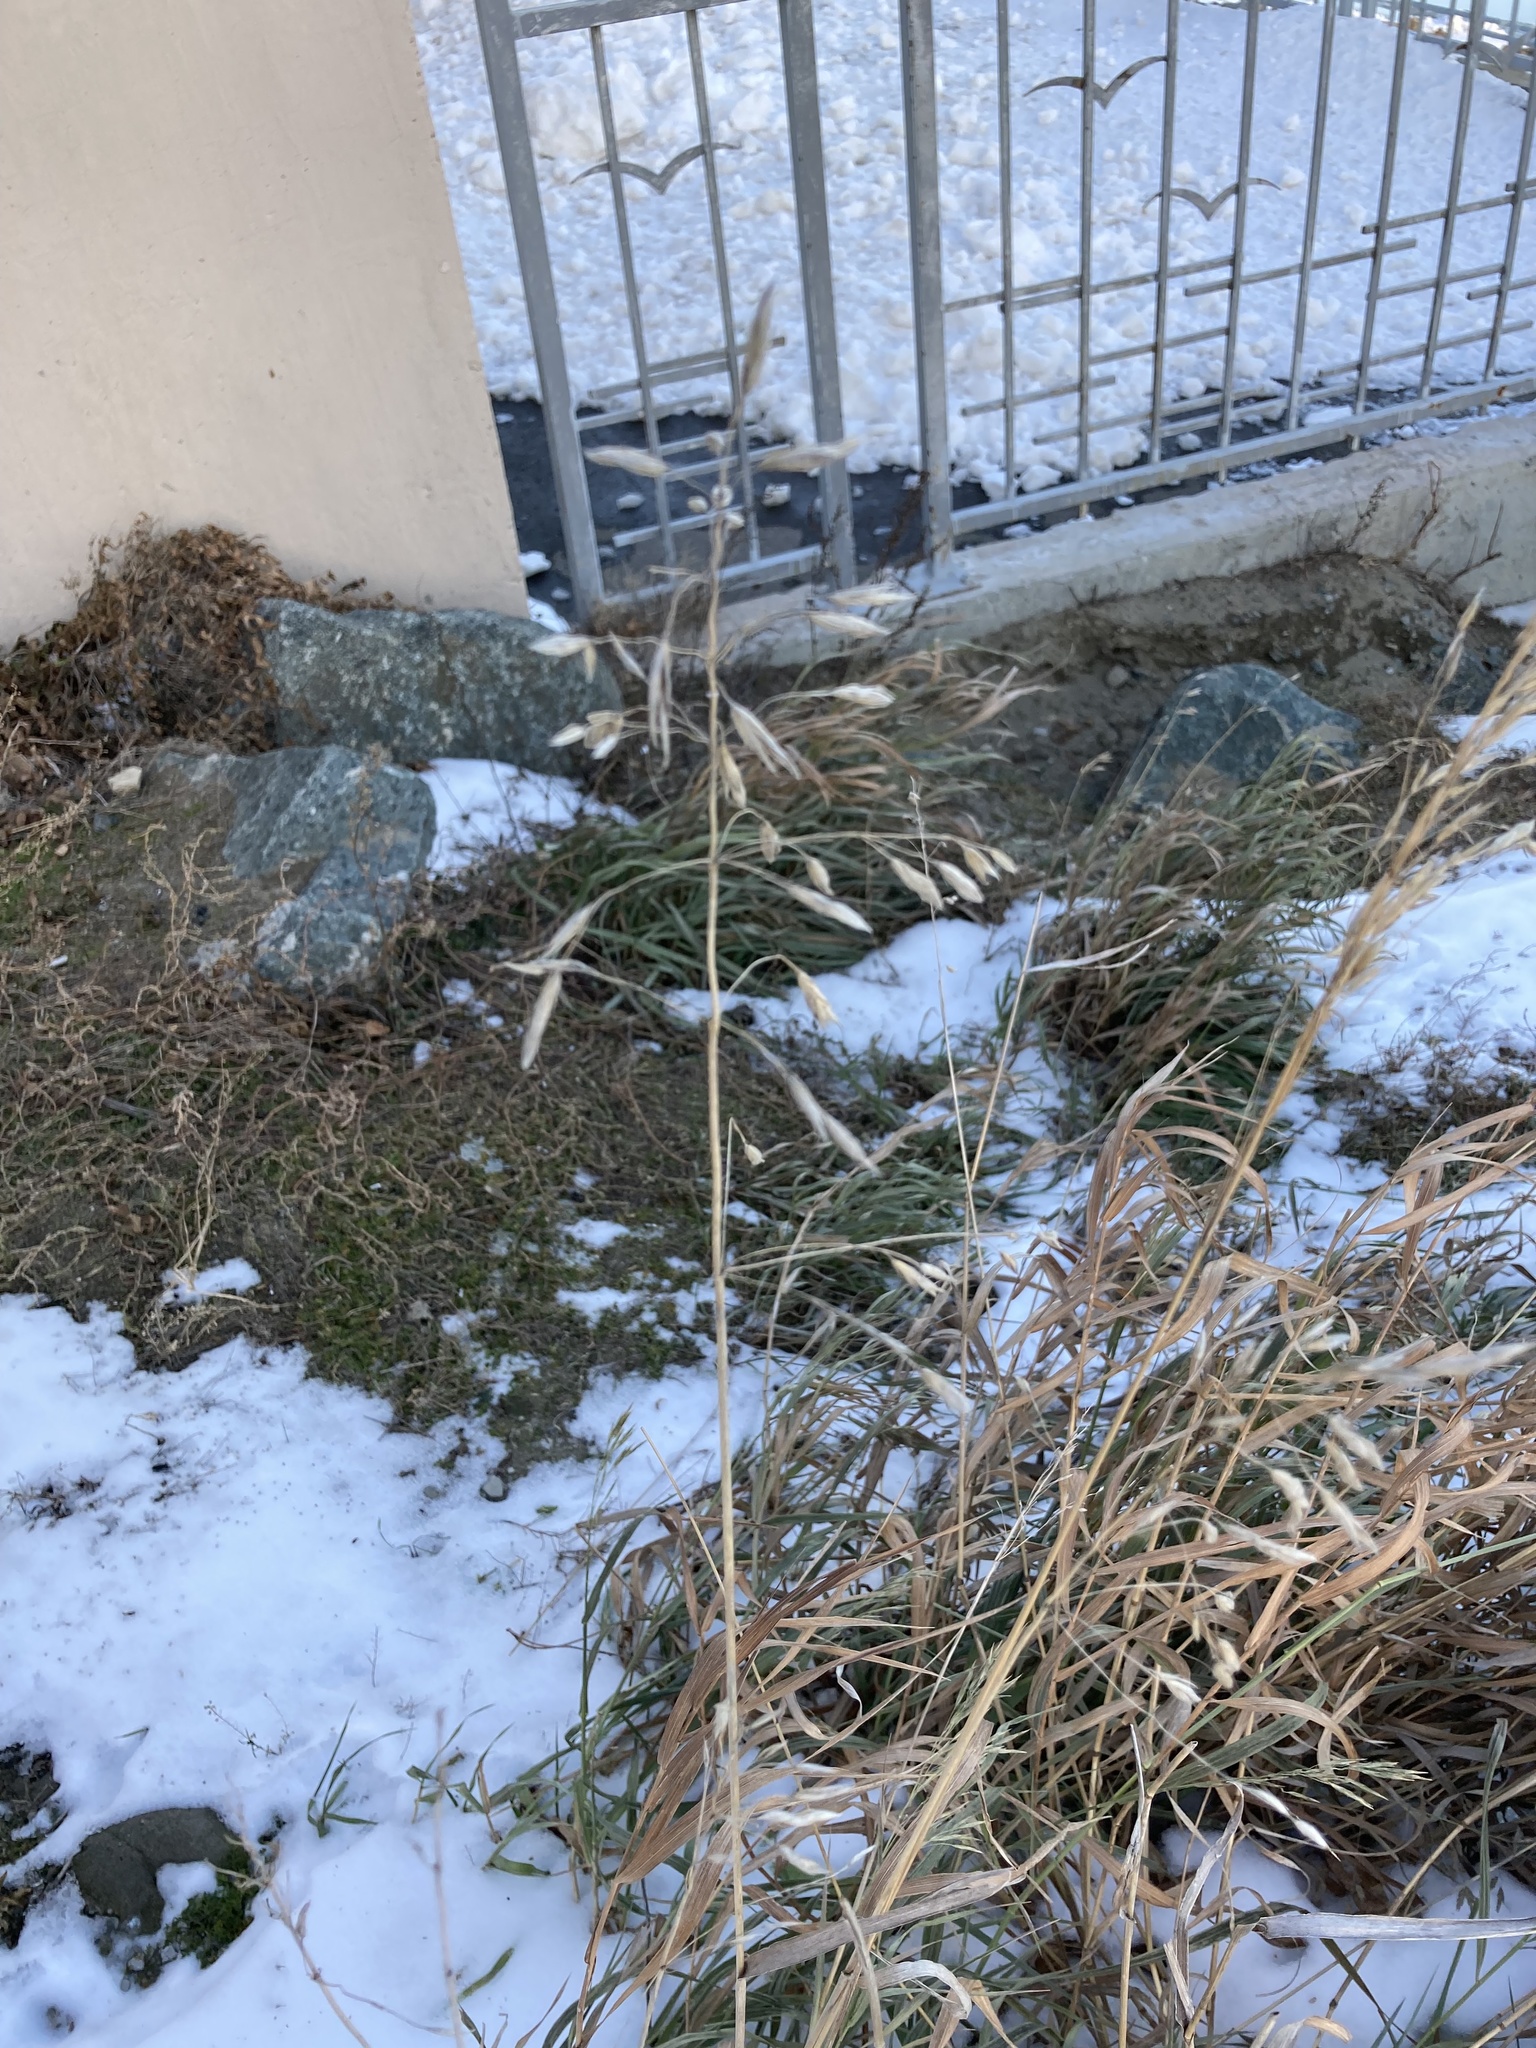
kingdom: Plantae
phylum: Tracheophyta
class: Liliopsida
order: Poales
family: Poaceae
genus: Bromus
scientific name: Bromus inermis
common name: Smooth brome
